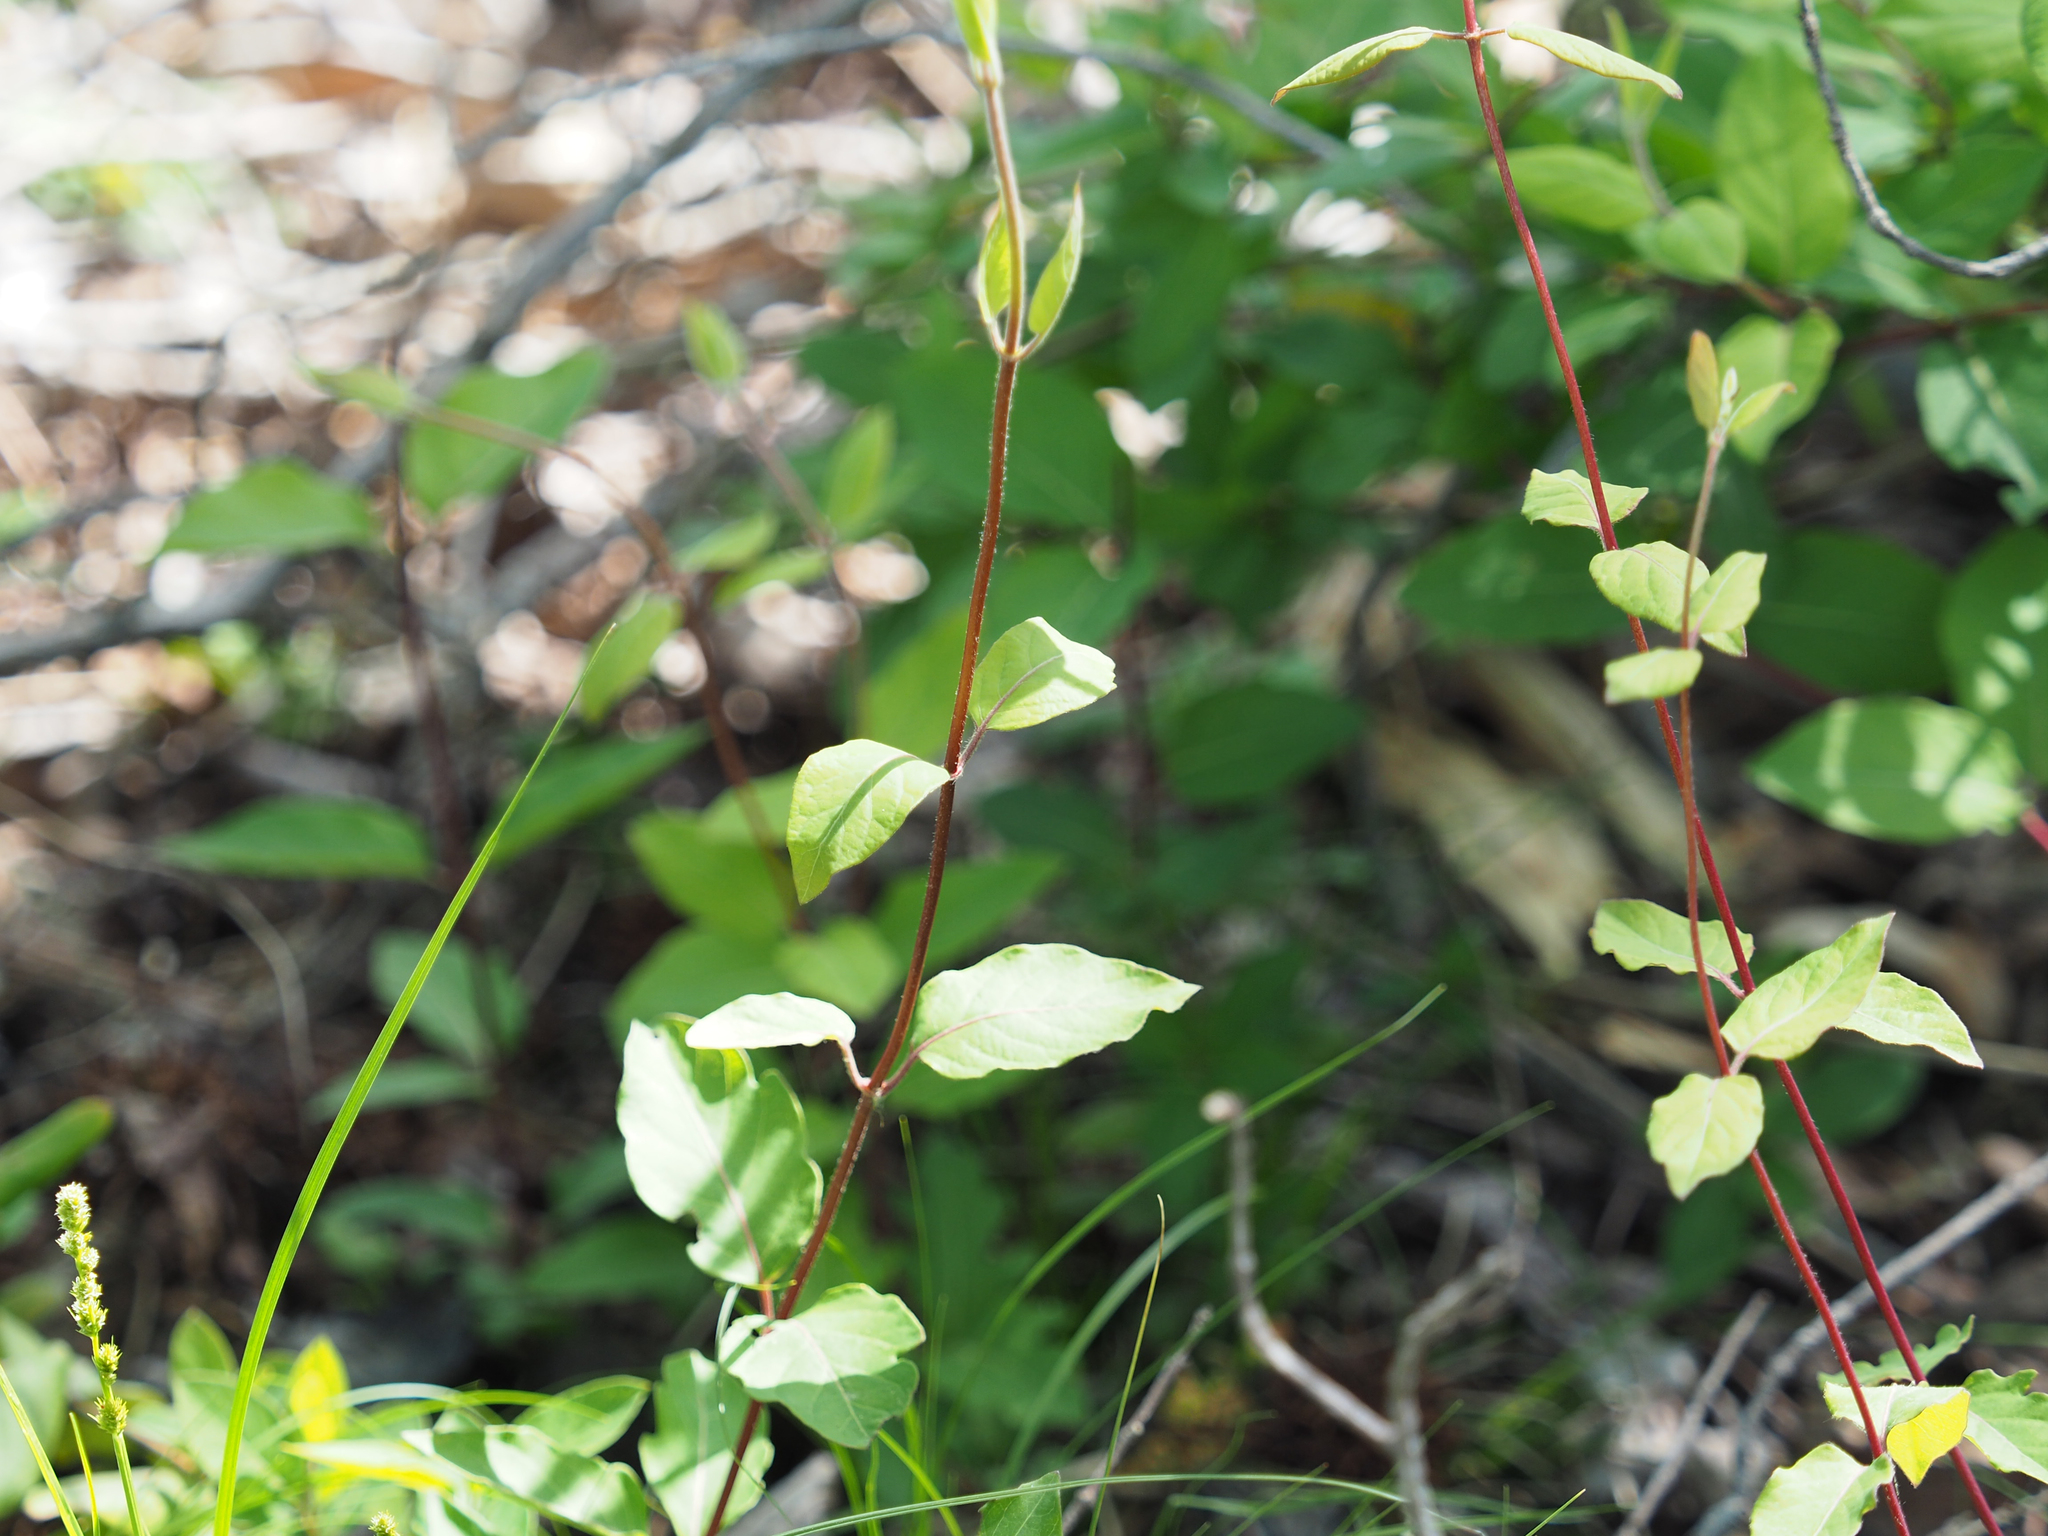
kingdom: Plantae
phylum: Tracheophyta
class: Magnoliopsida
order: Dipsacales
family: Caprifoliaceae
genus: Lonicera
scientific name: Lonicera japonica
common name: Japanese honeysuckle
